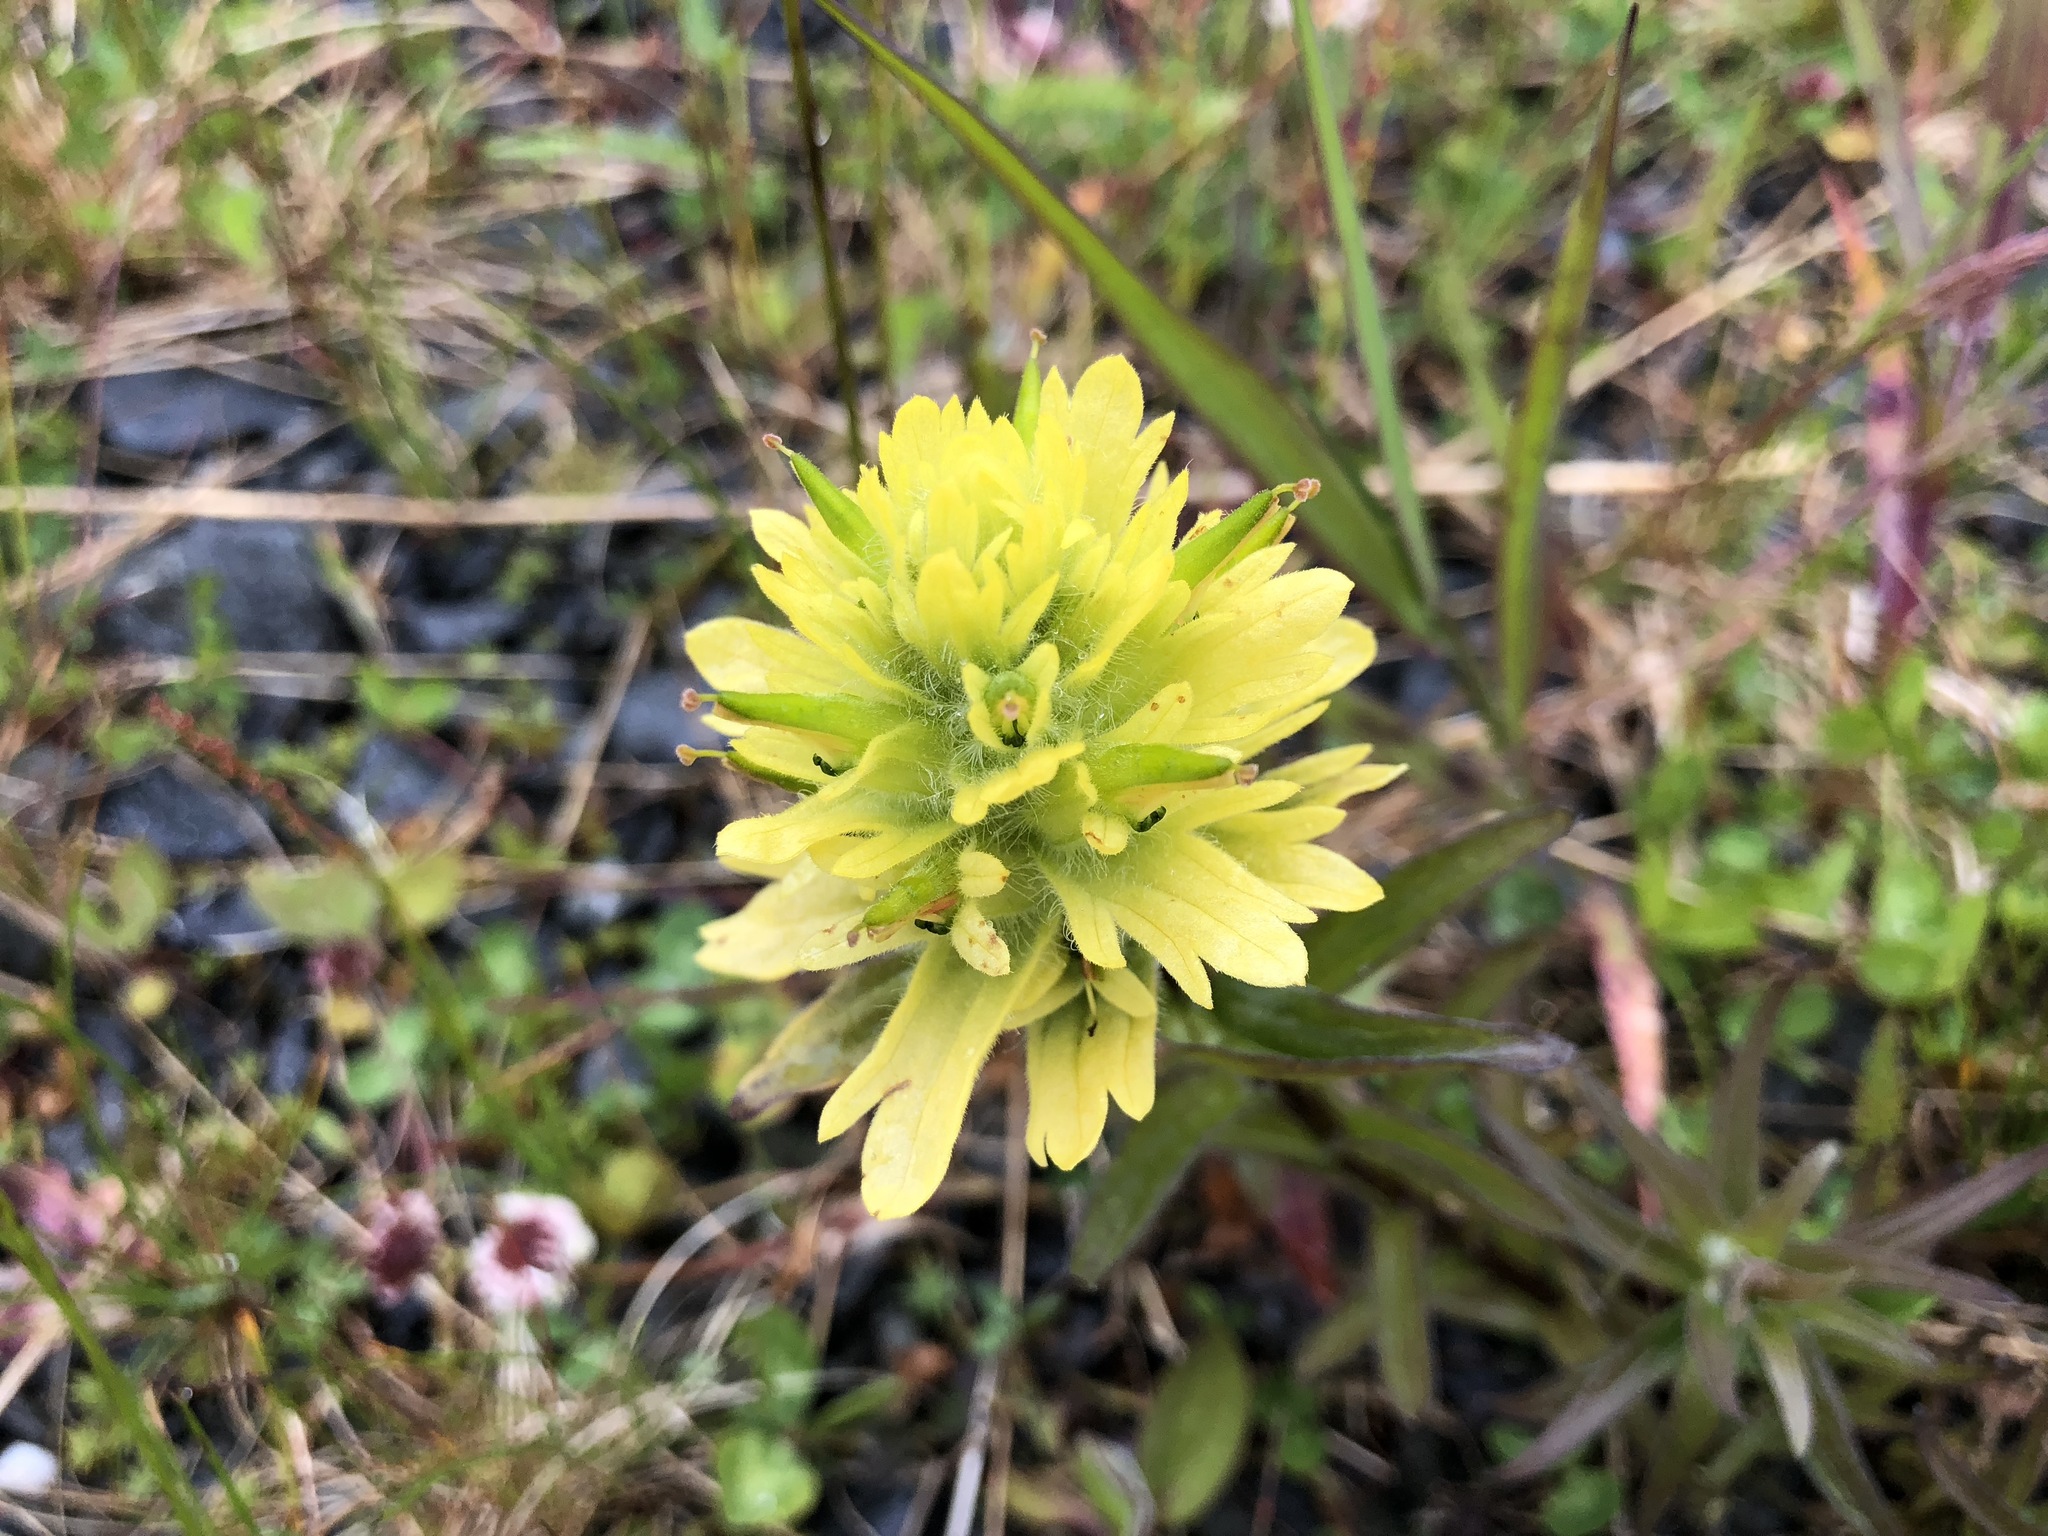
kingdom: Plantae
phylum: Tracheophyta
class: Magnoliopsida
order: Lamiales
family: Orobanchaceae
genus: Castilleja
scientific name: Castilleja unalaschcensis
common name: Unalaska paintbrush
